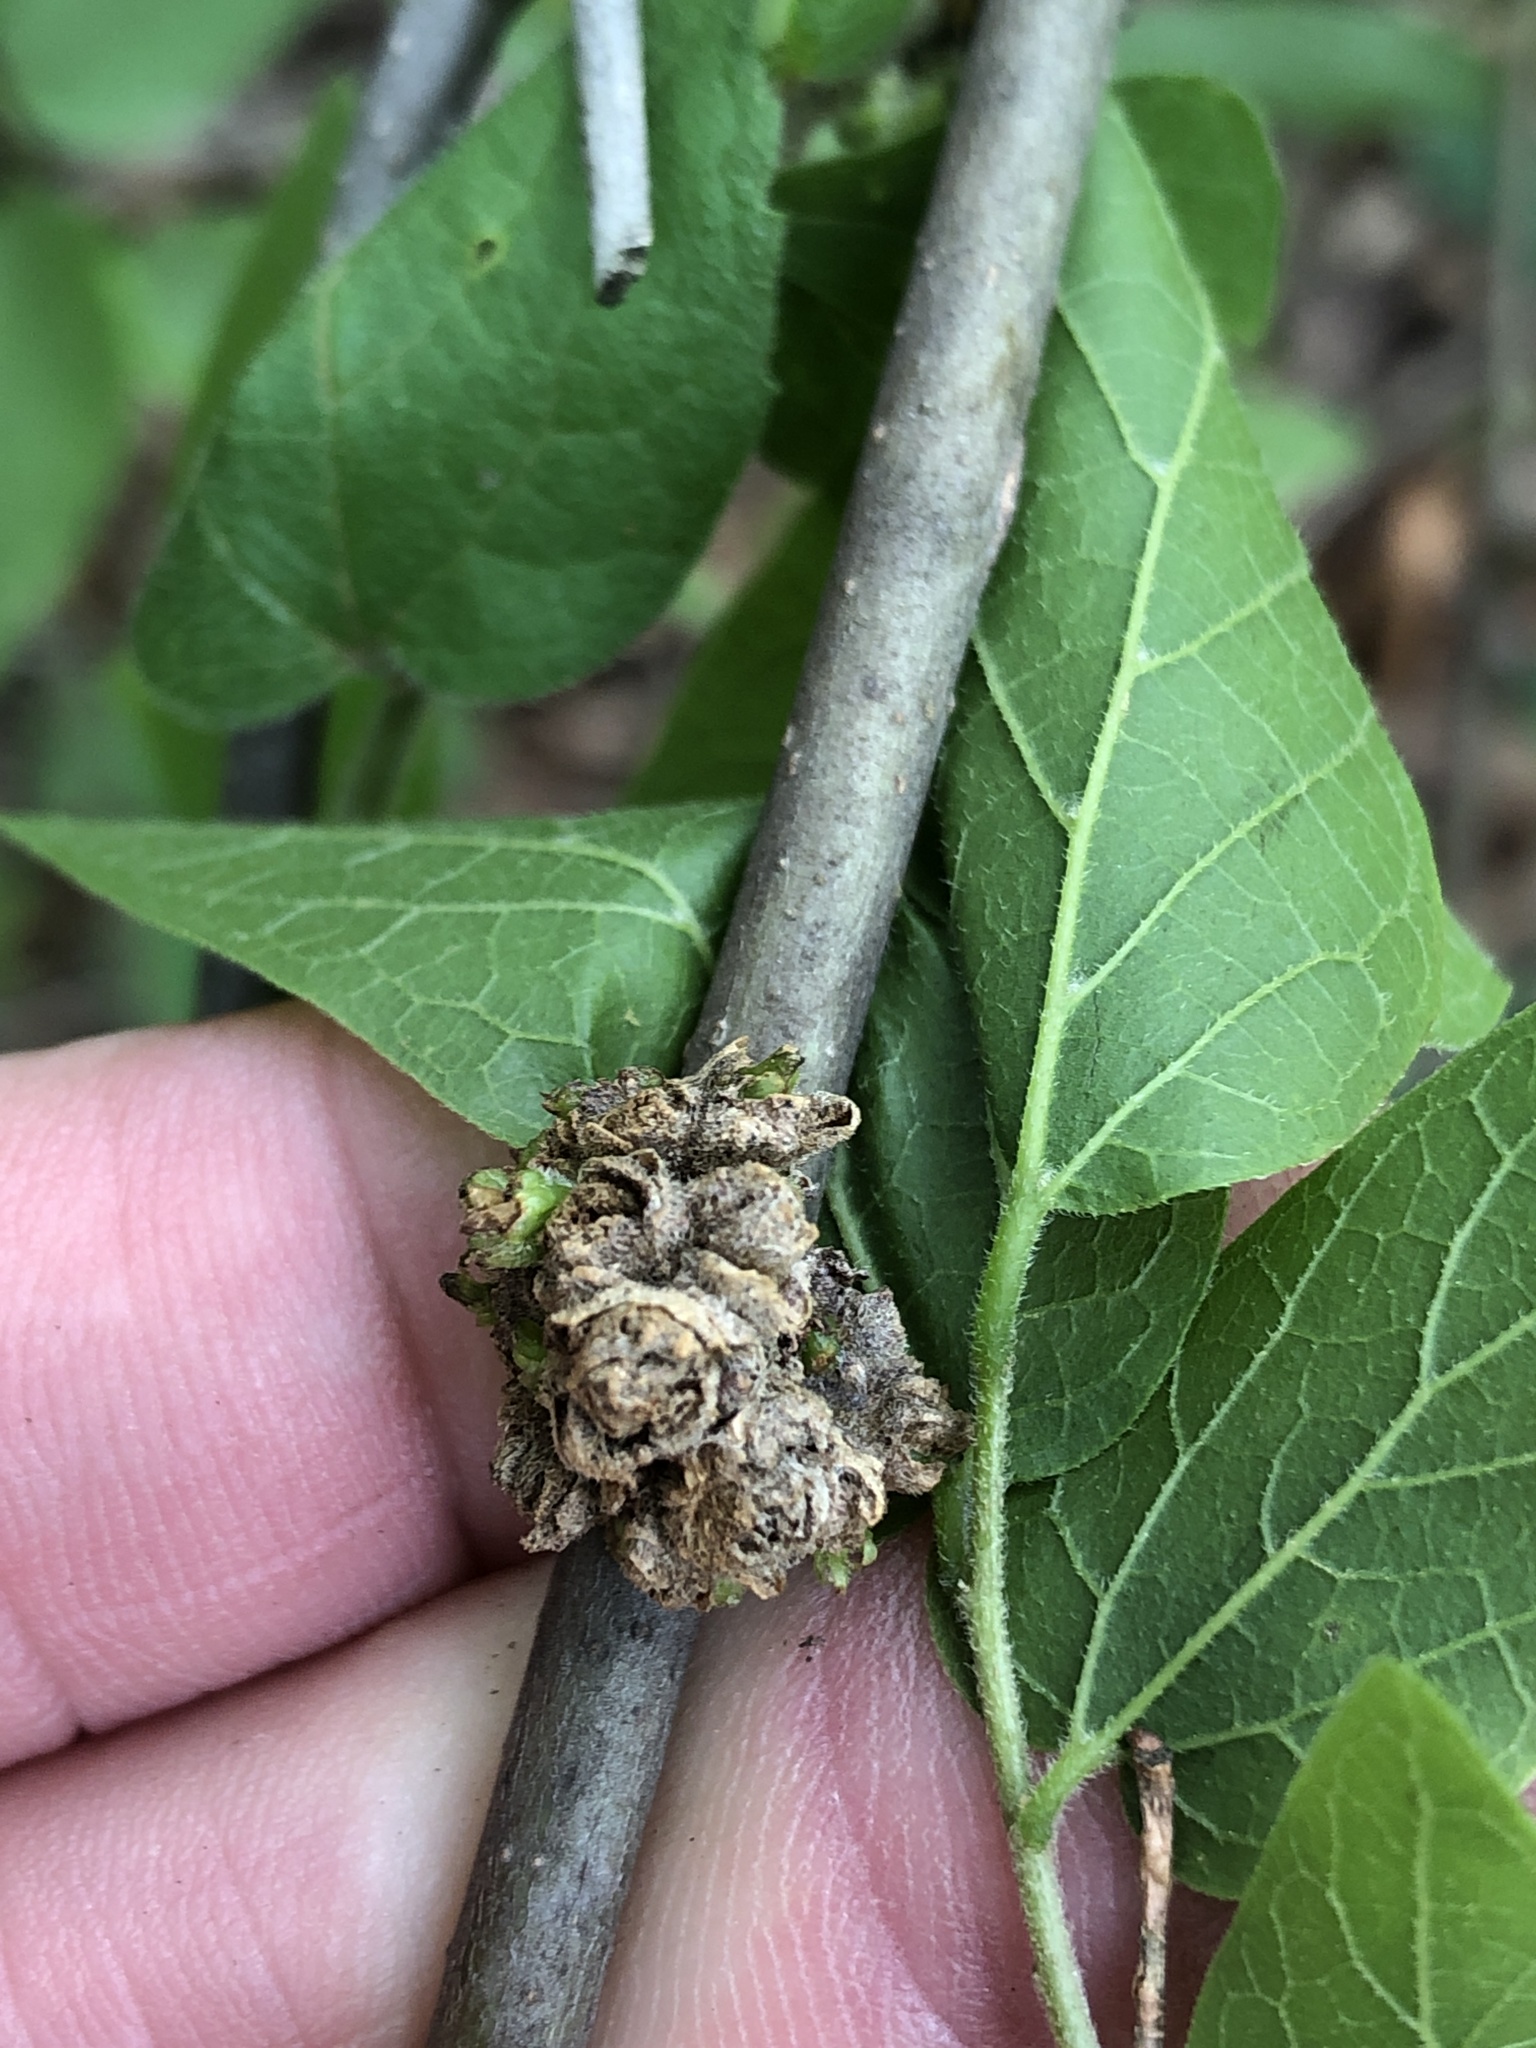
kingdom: Animalia
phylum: Arthropoda
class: Arachnida
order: Trombidiformes
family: Eriophyidae
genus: Aceria
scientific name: Aceria
